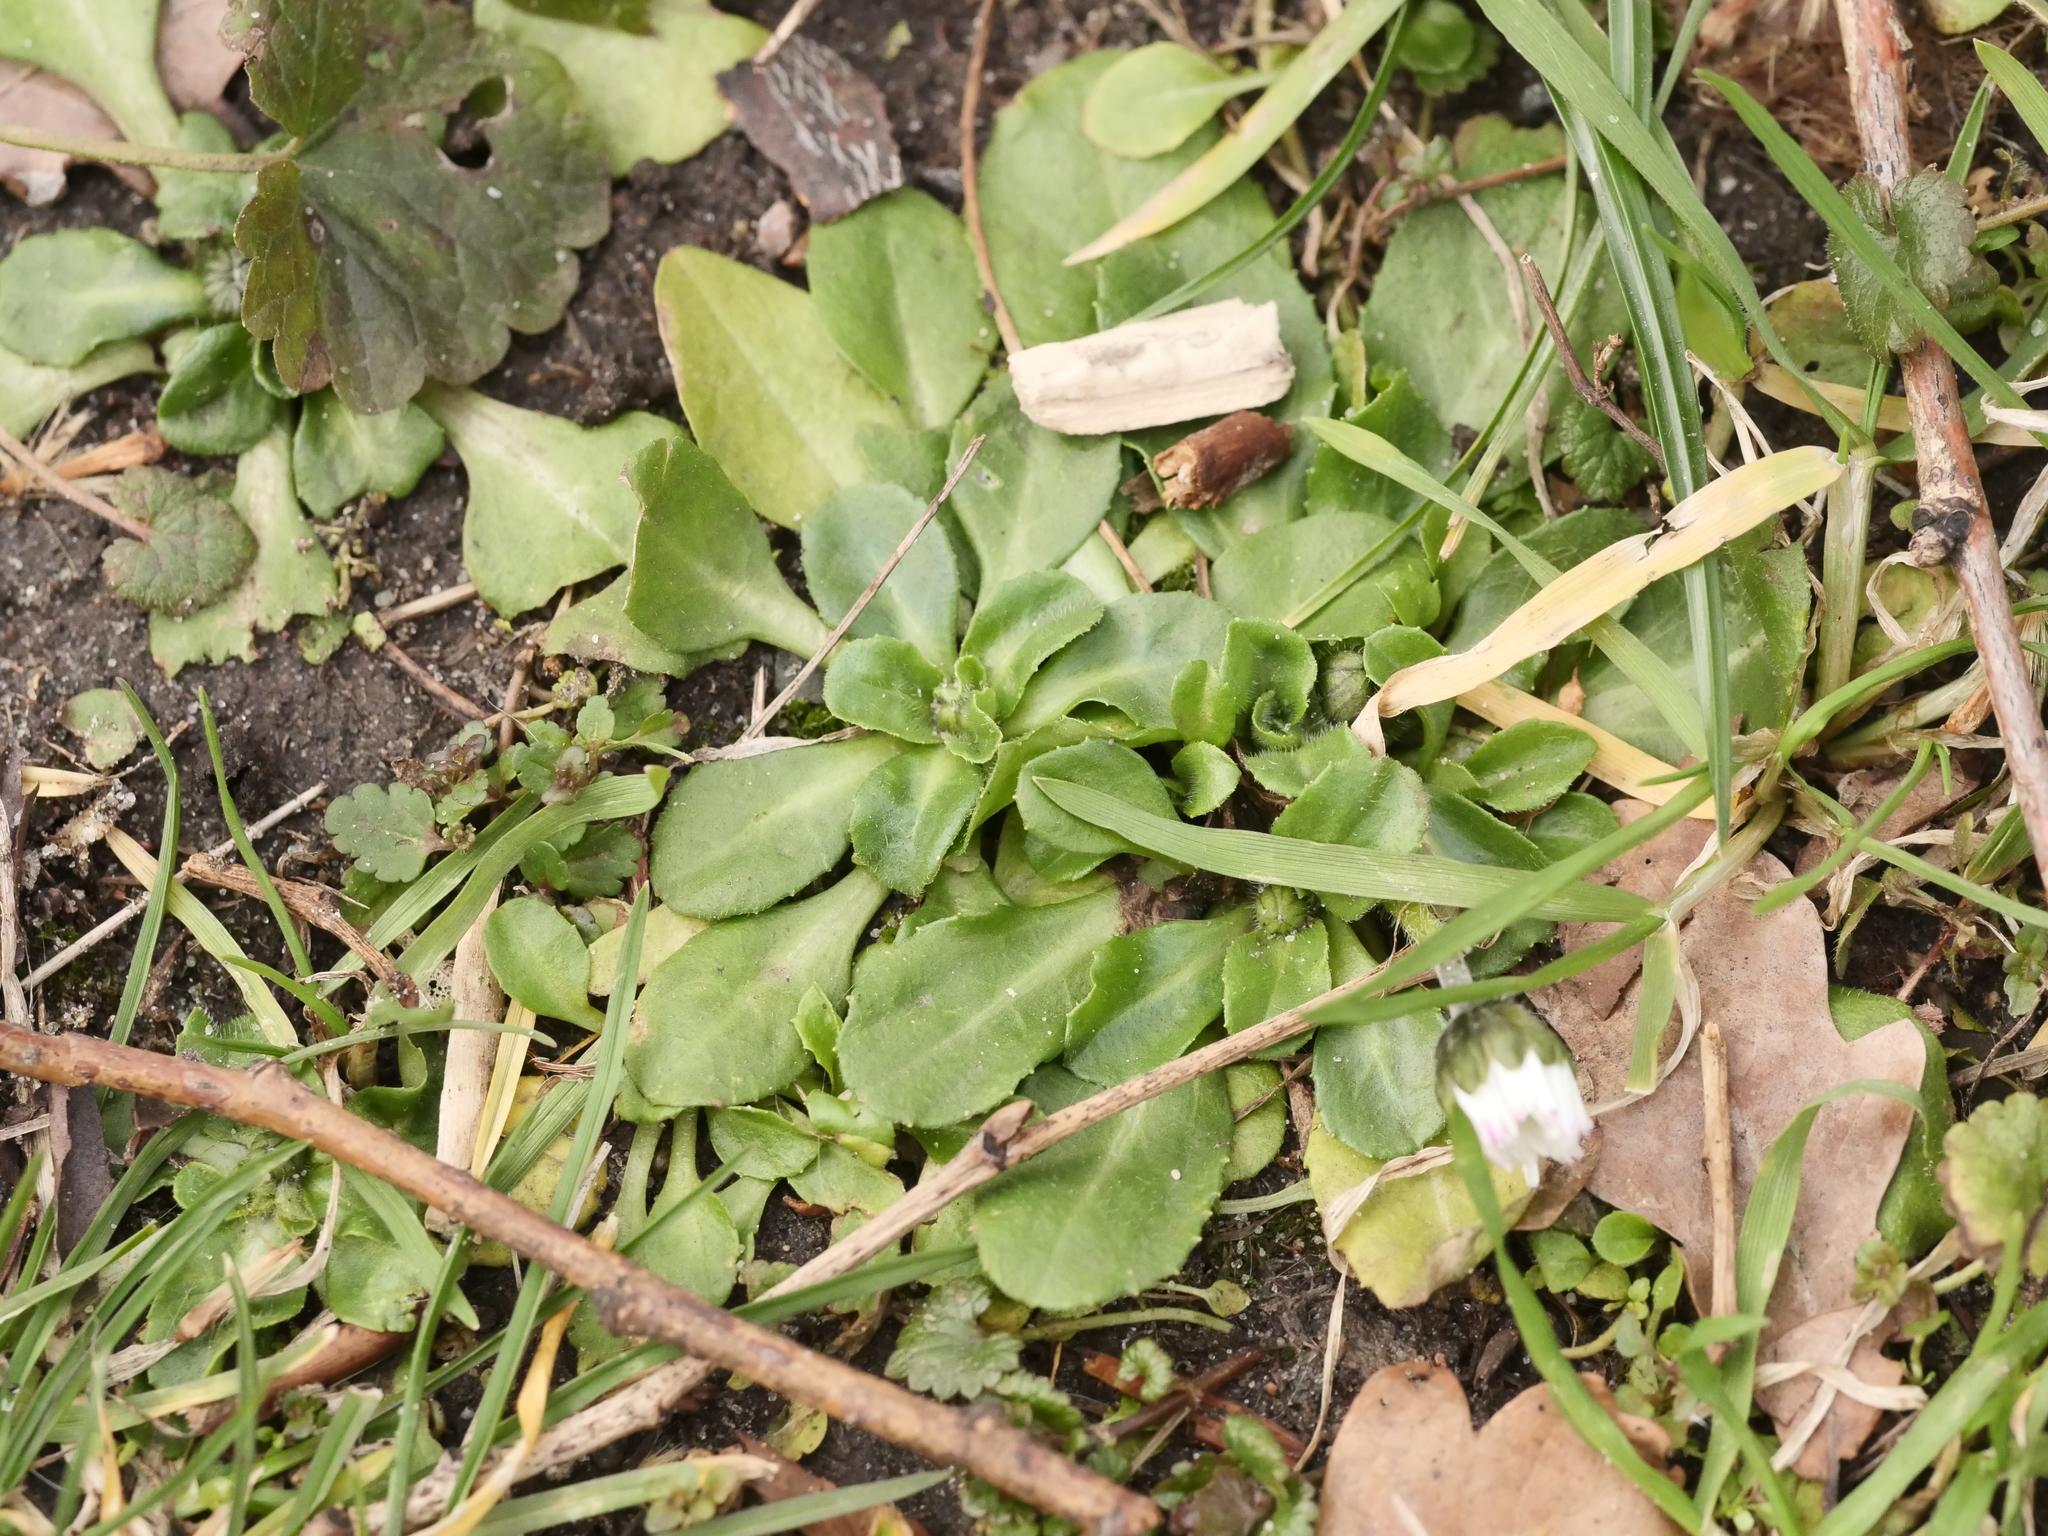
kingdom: Plantae
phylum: Tracheophyta
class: Magnoliopsida
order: Asterales
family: Asteraceae
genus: Bellis
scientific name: Bellis perennis
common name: Lawndaisy
